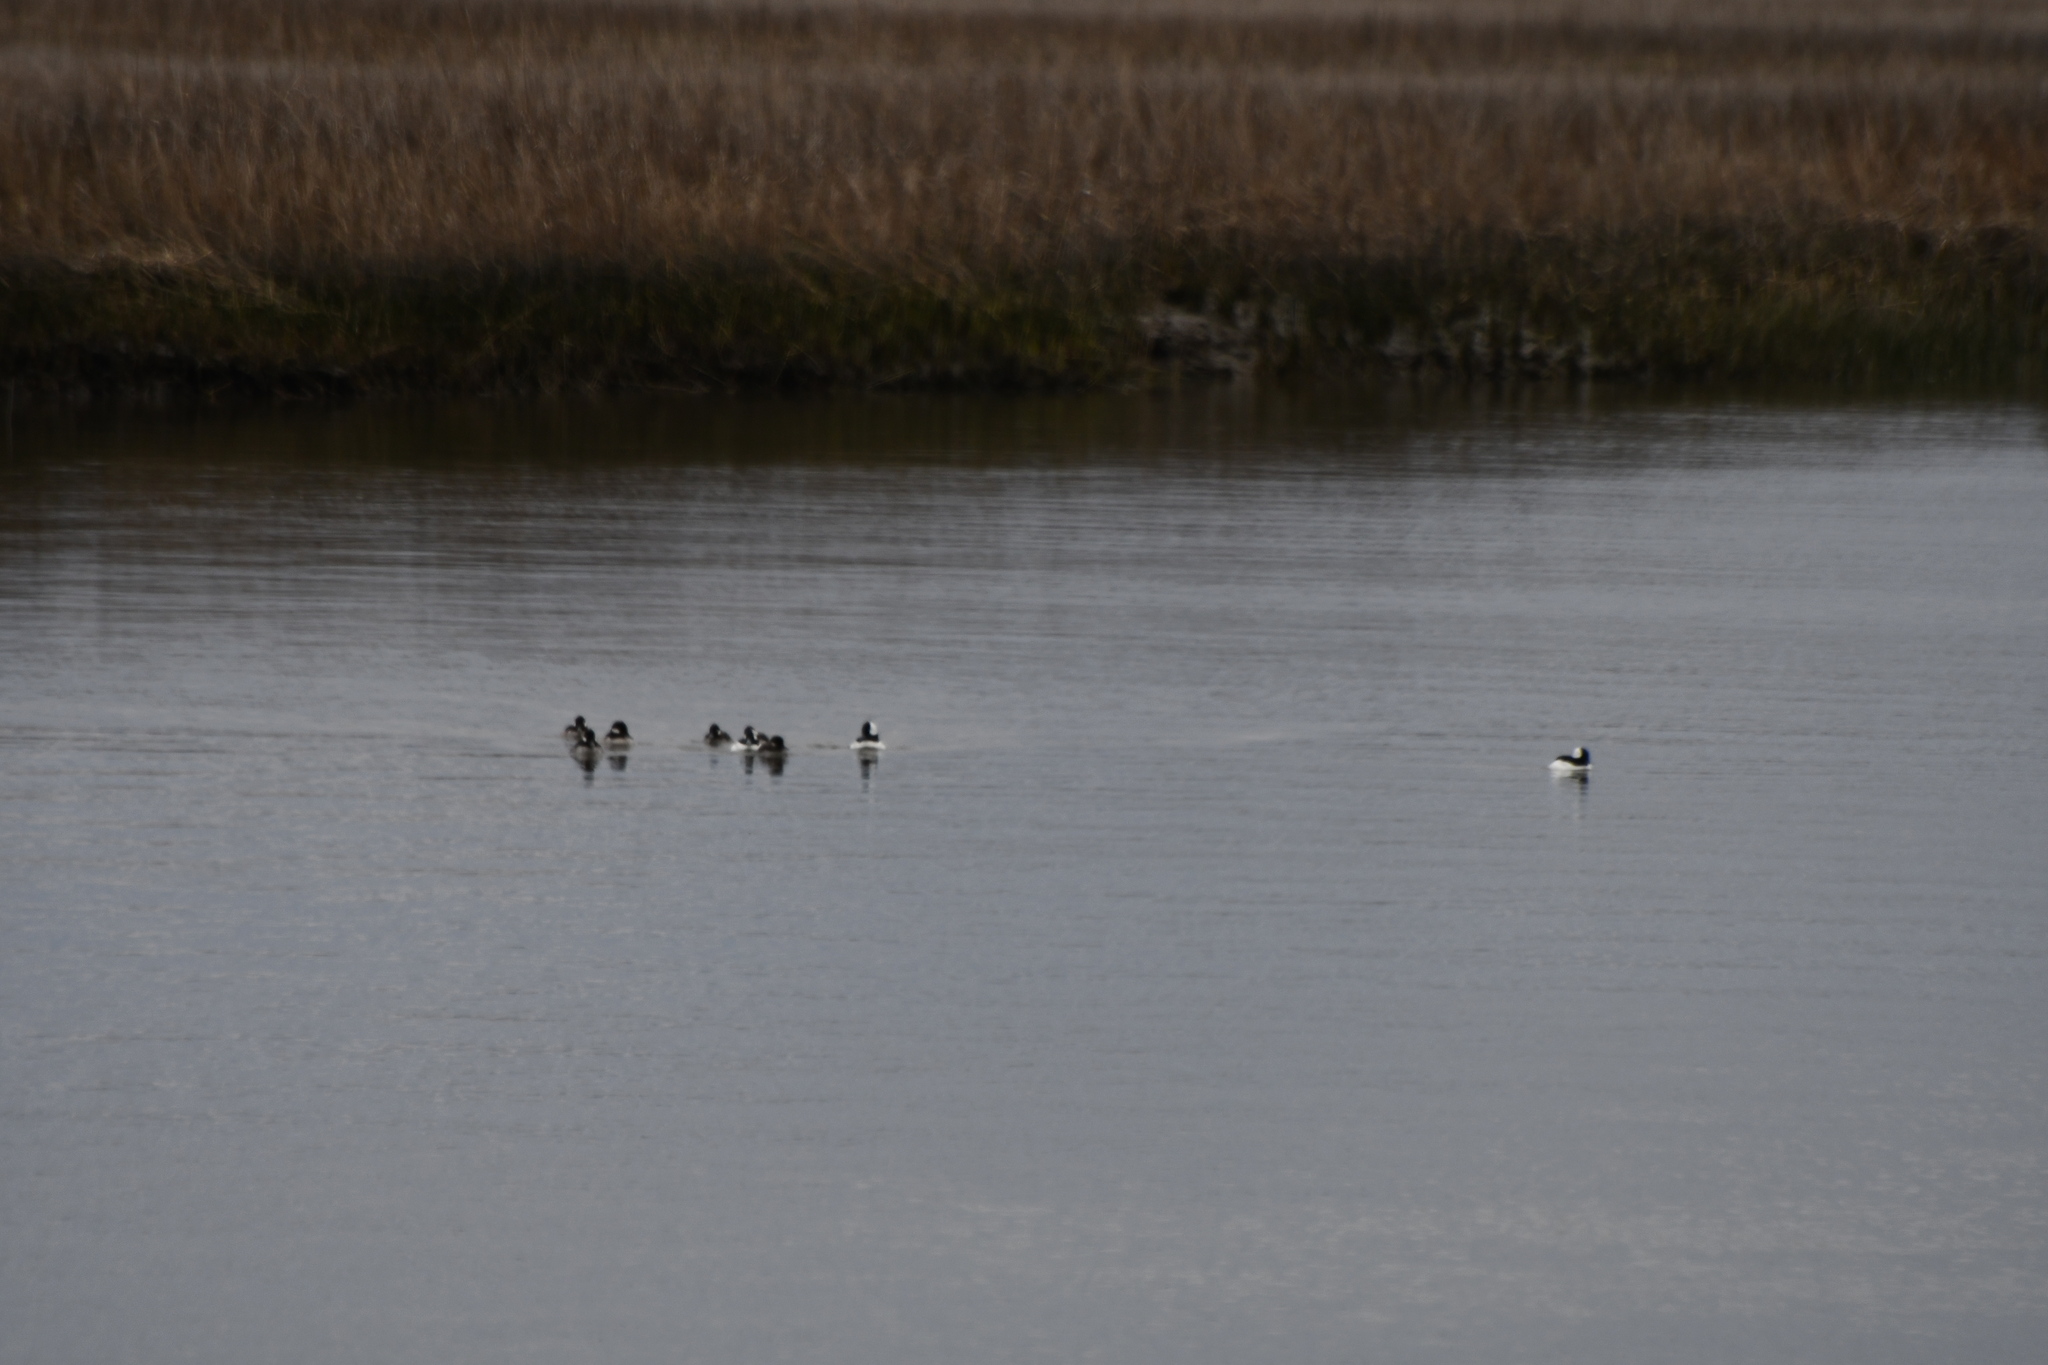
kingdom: Animalia
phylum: Chordata
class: Aves
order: Anseriformes
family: Anatidae
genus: Bucephala
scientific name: Bucephala albeola
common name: Bufflehead
